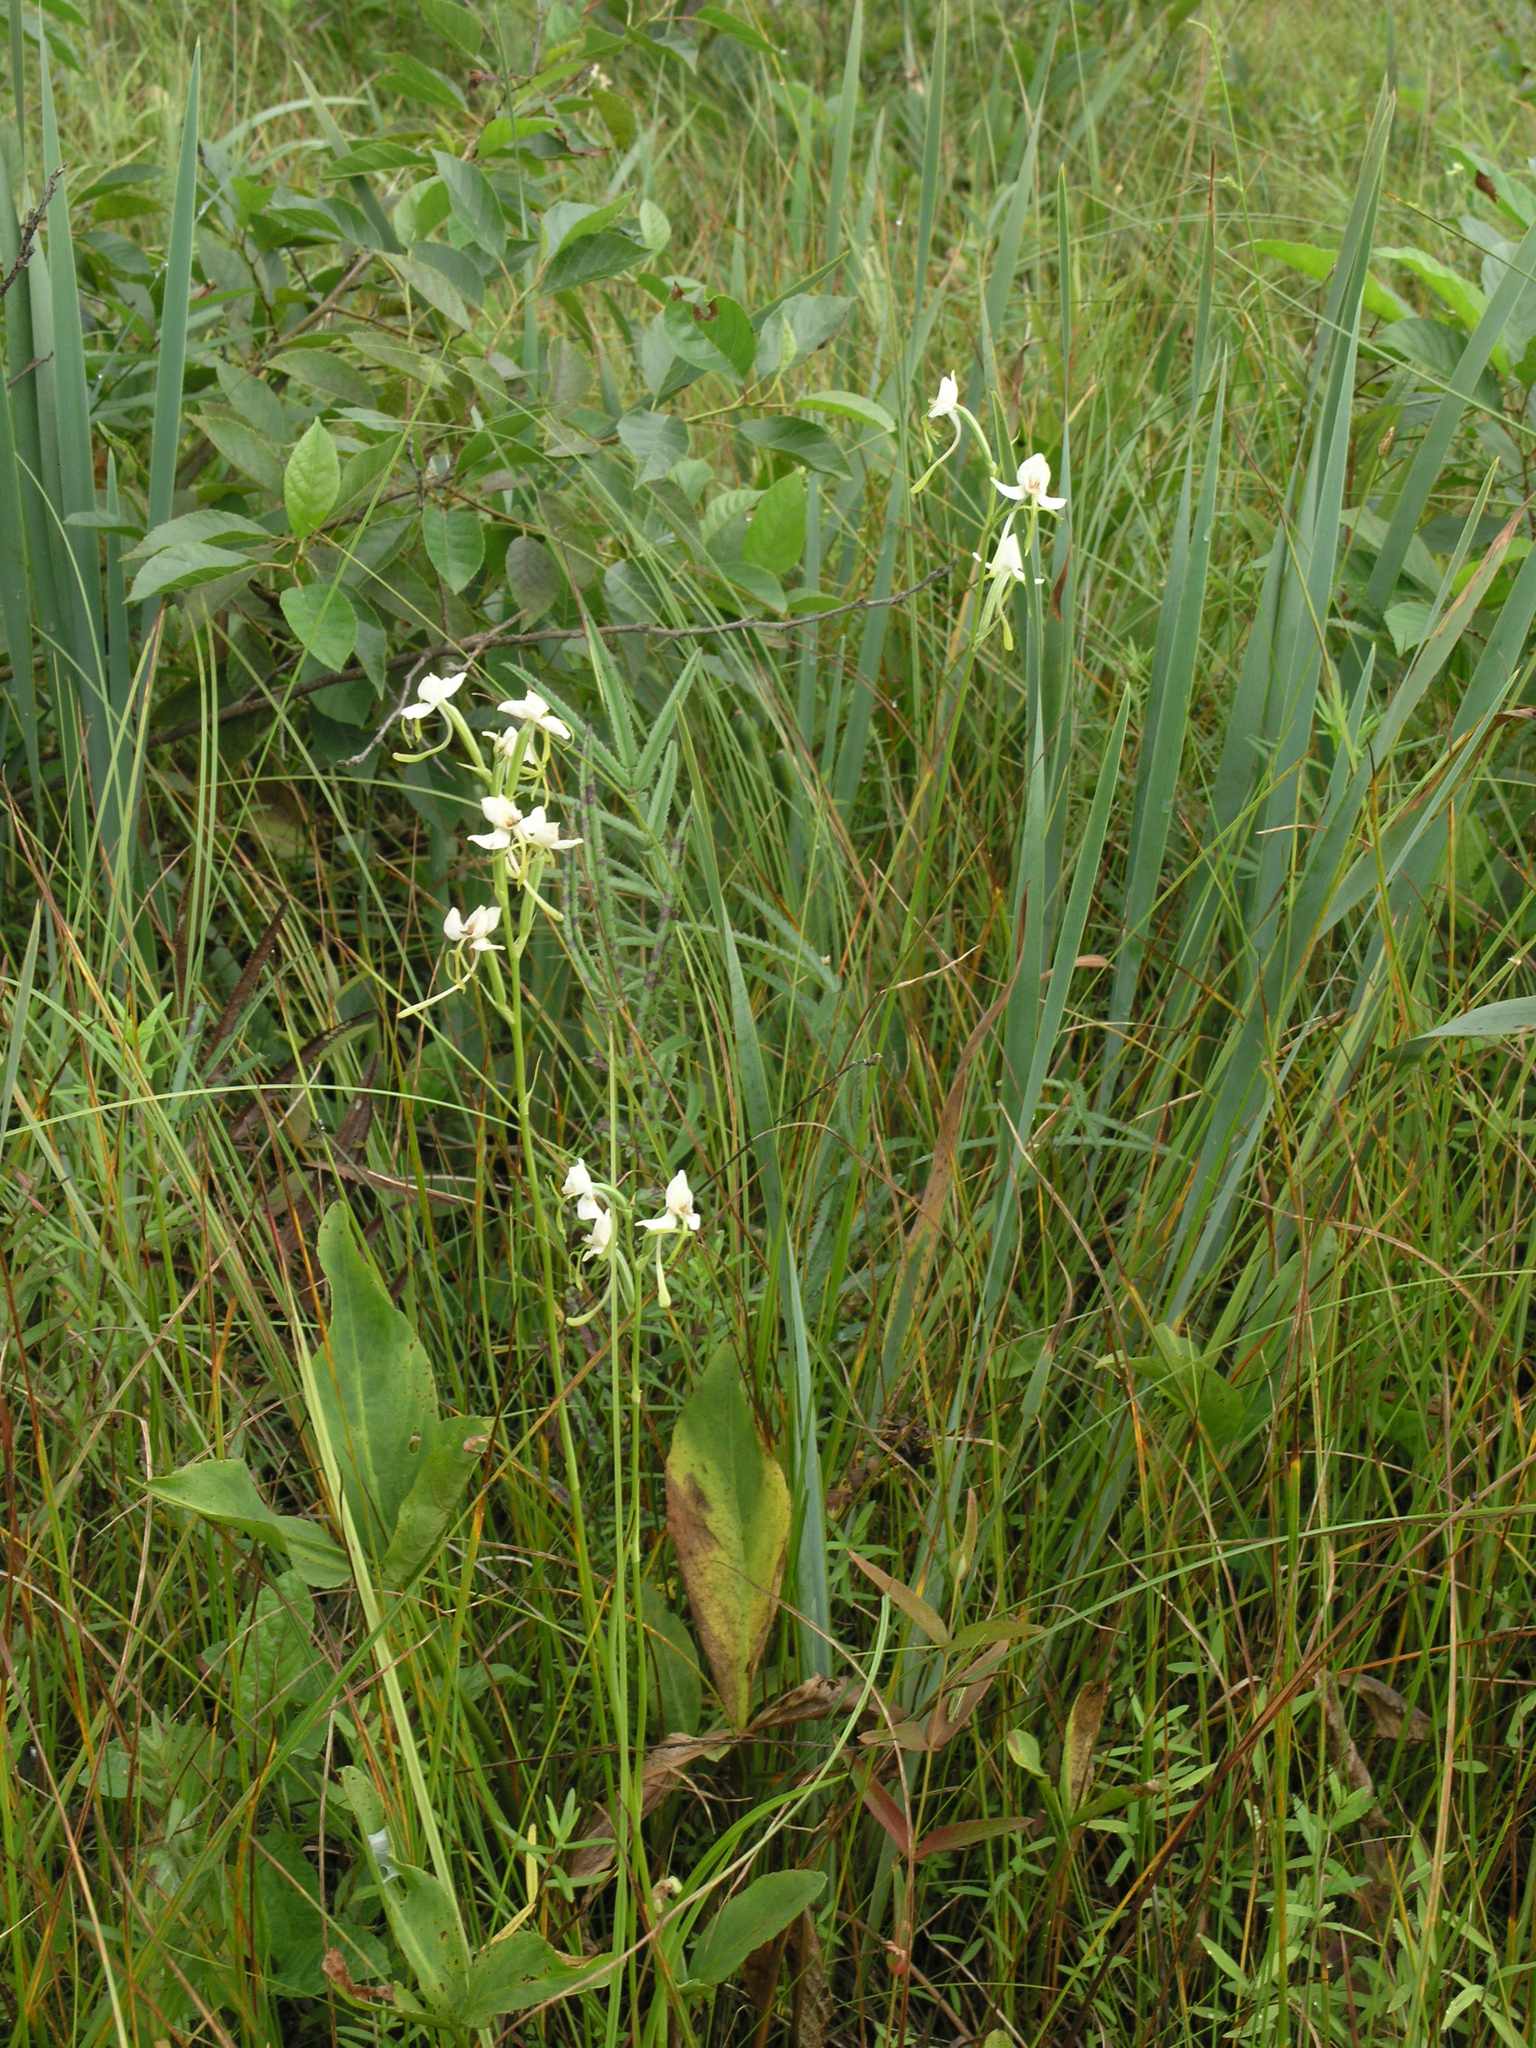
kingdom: Plantae
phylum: Tracheophyta
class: Liliopsida
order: Asparagales
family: Orchidaceae
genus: Habenaria
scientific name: Habenaria linearifolia
